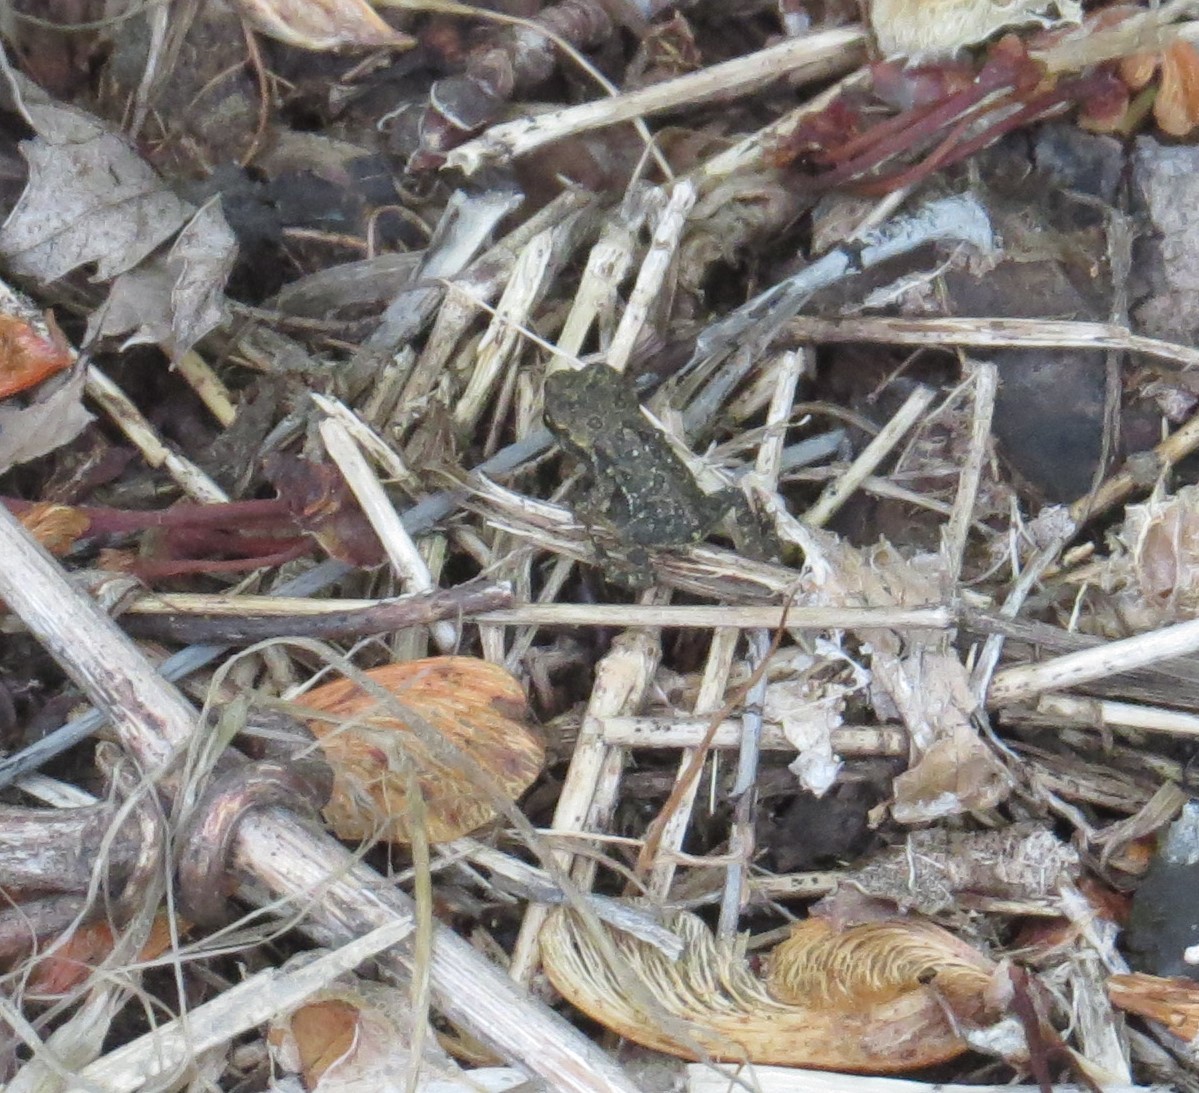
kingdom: Animalia
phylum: Chordata
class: Amphibia
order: Anura
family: Bufonidae
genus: Anaxyrus
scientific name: Anaxyrus americanus
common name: American toad
